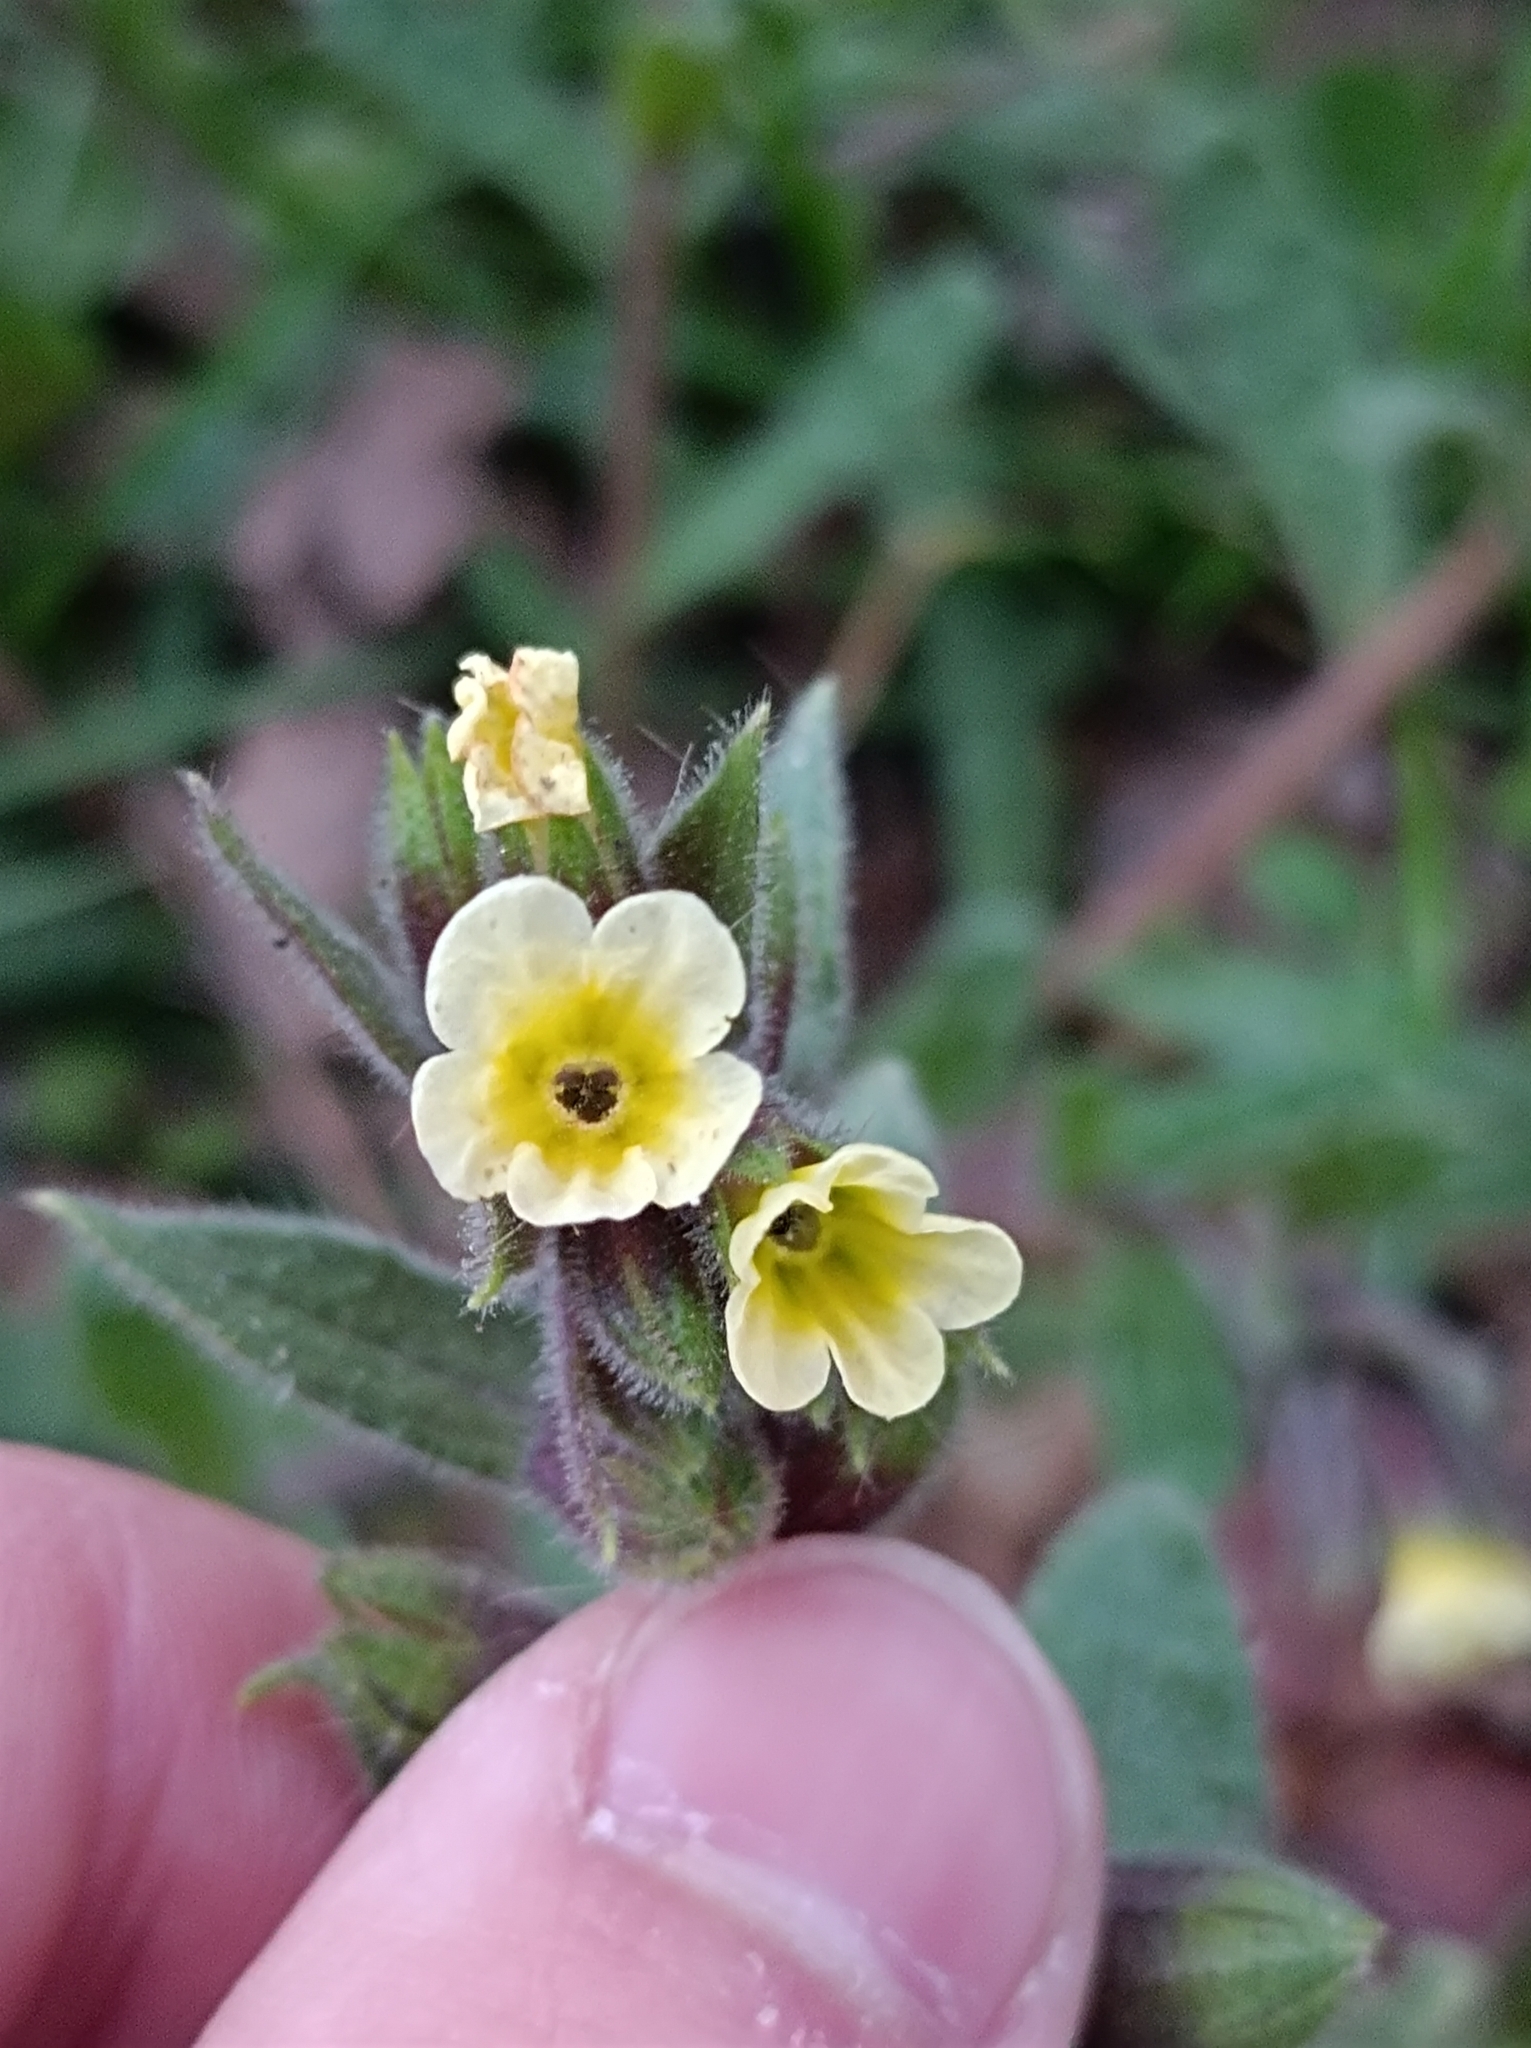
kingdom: Plantae
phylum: Tracheophyta
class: Magnoliopsida
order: Boraginales
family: Boraginaceae
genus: Nonea
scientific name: Nonea lutea
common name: Yellow nonea
